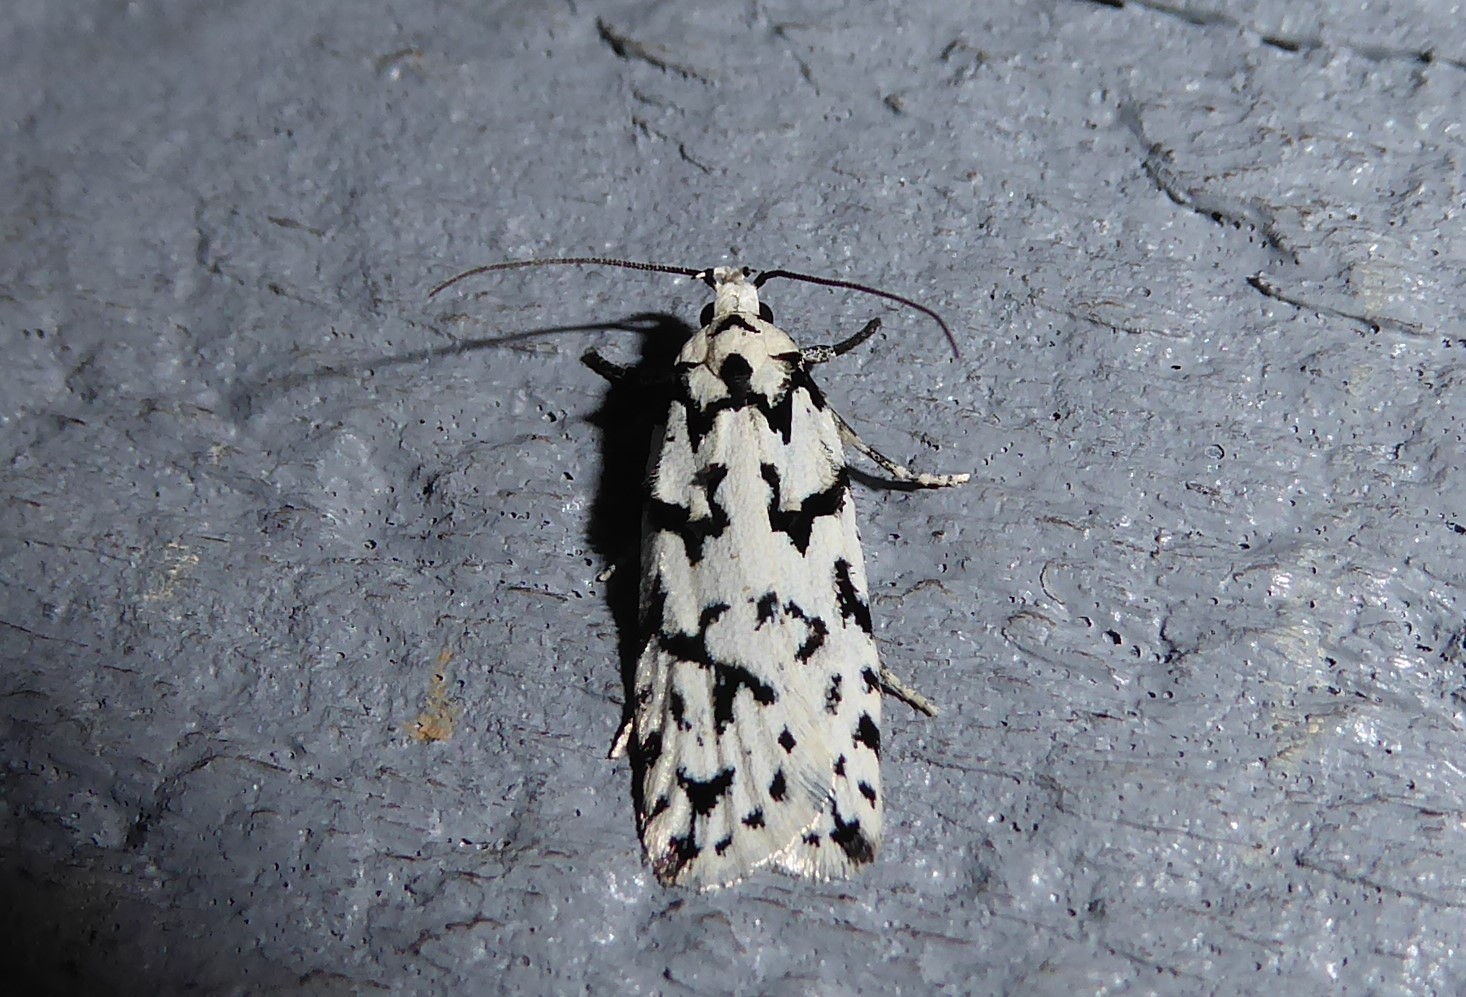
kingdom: Animalia
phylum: Arthropoda
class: Insecta
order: Lepidoptera
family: Oecophoridae
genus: Izatha
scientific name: Izatha katadiktya
